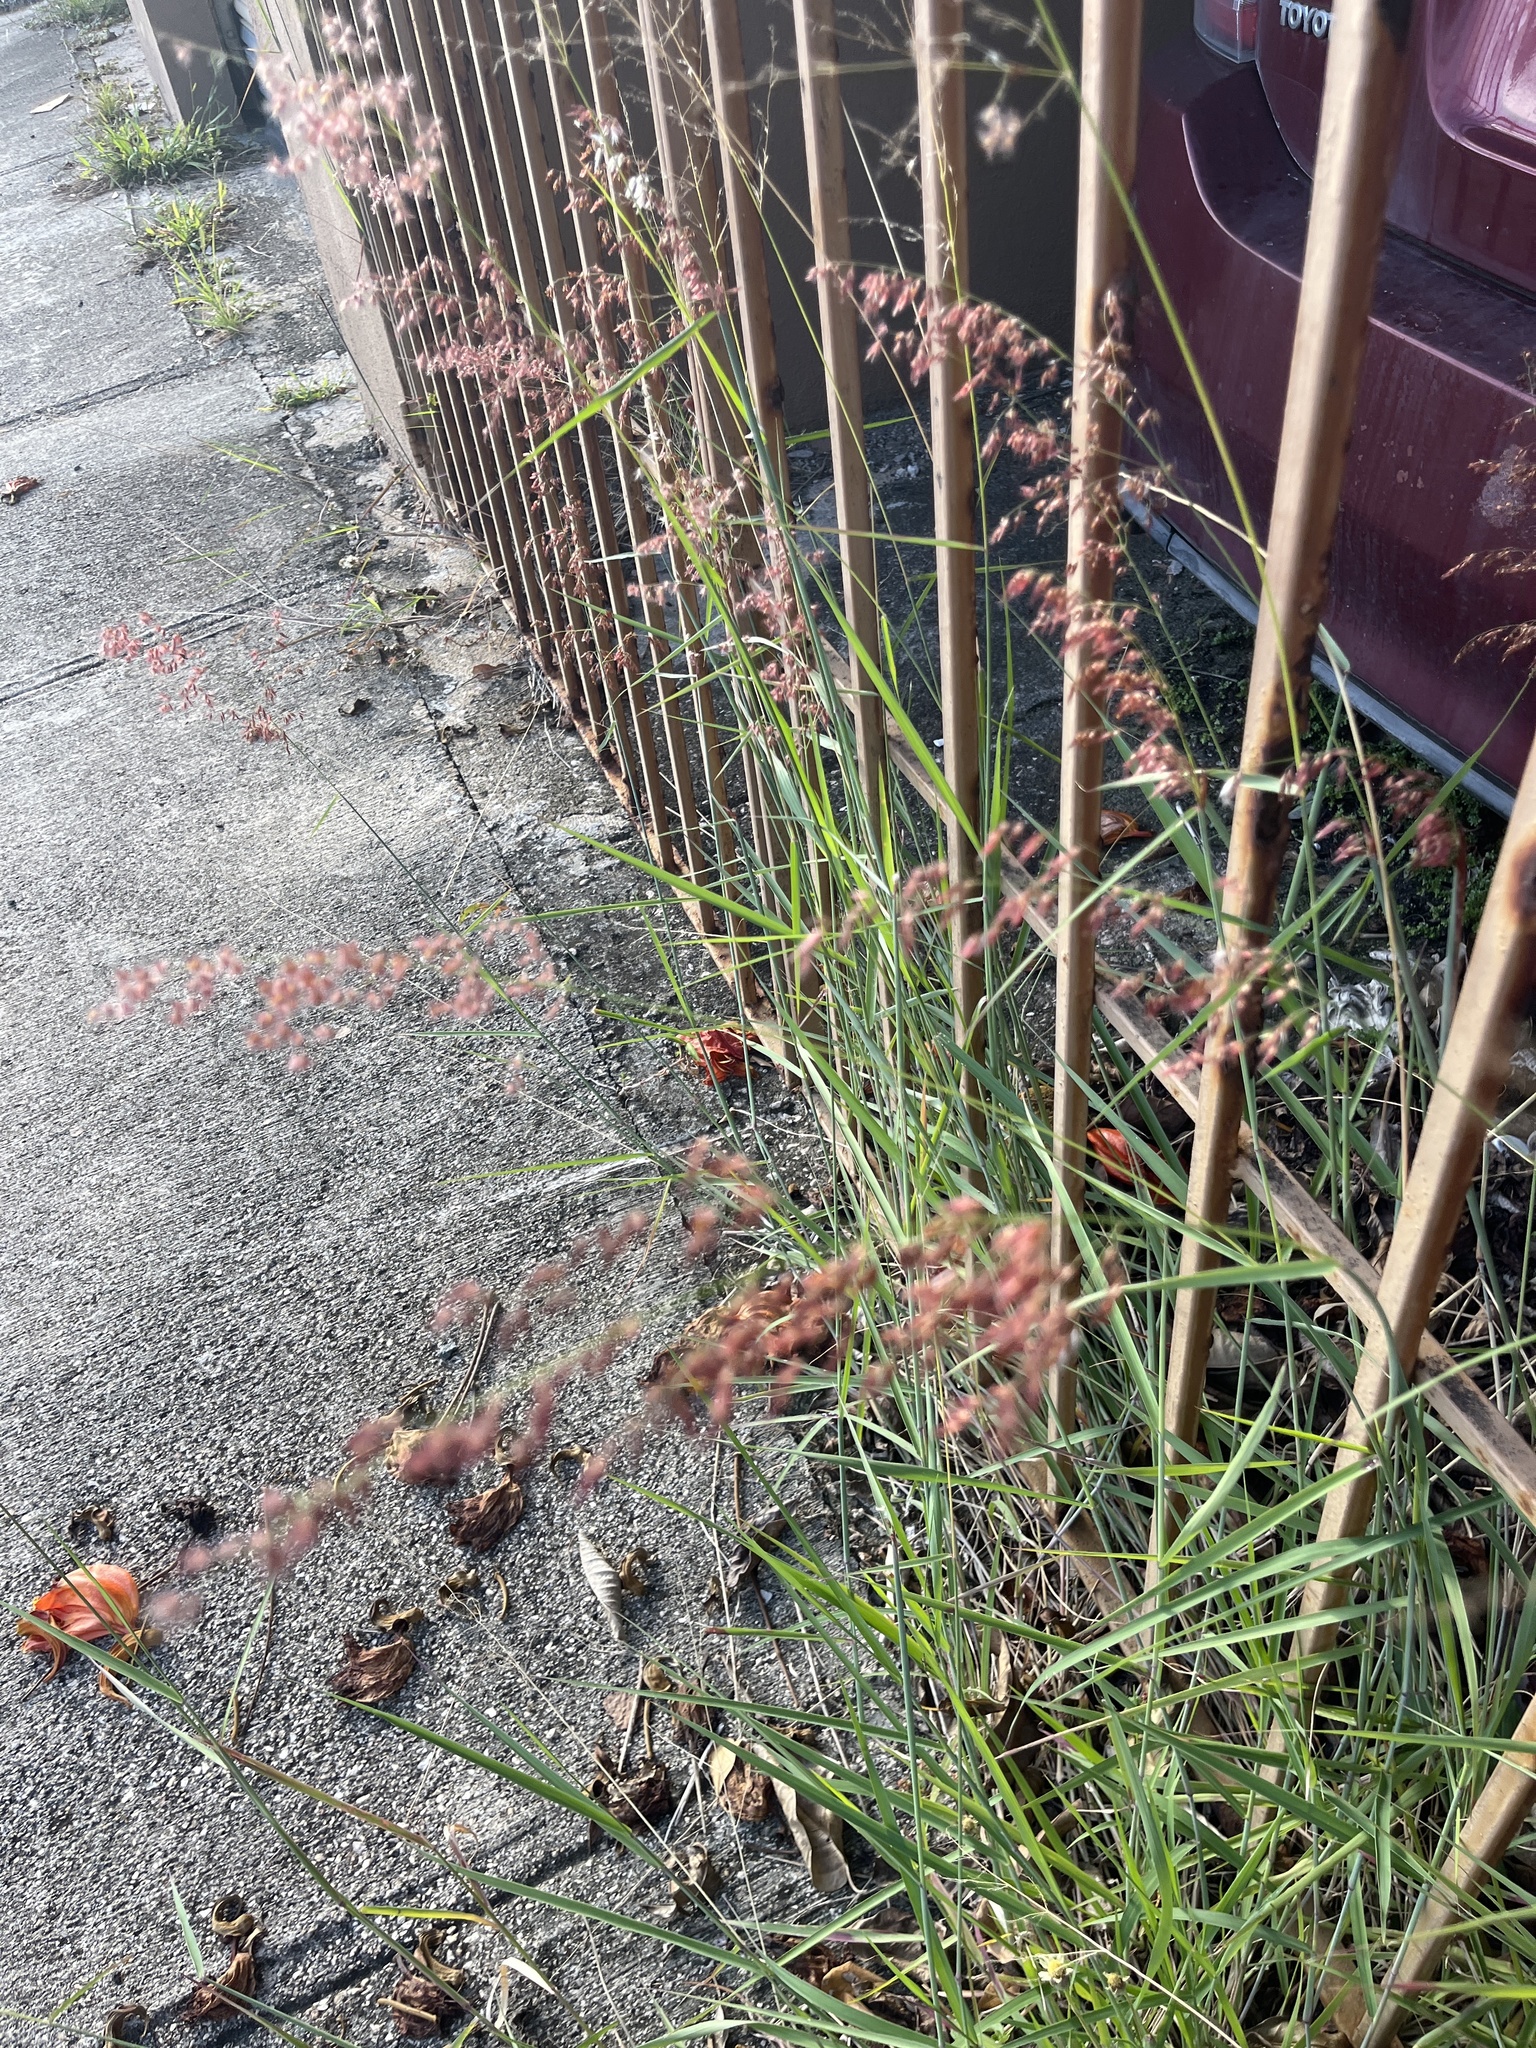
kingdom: Plantae
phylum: Tracheophyta
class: Liliopsida
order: Poales
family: Poaceae
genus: Melinis
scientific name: Melinis repens
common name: Rose natal grass
